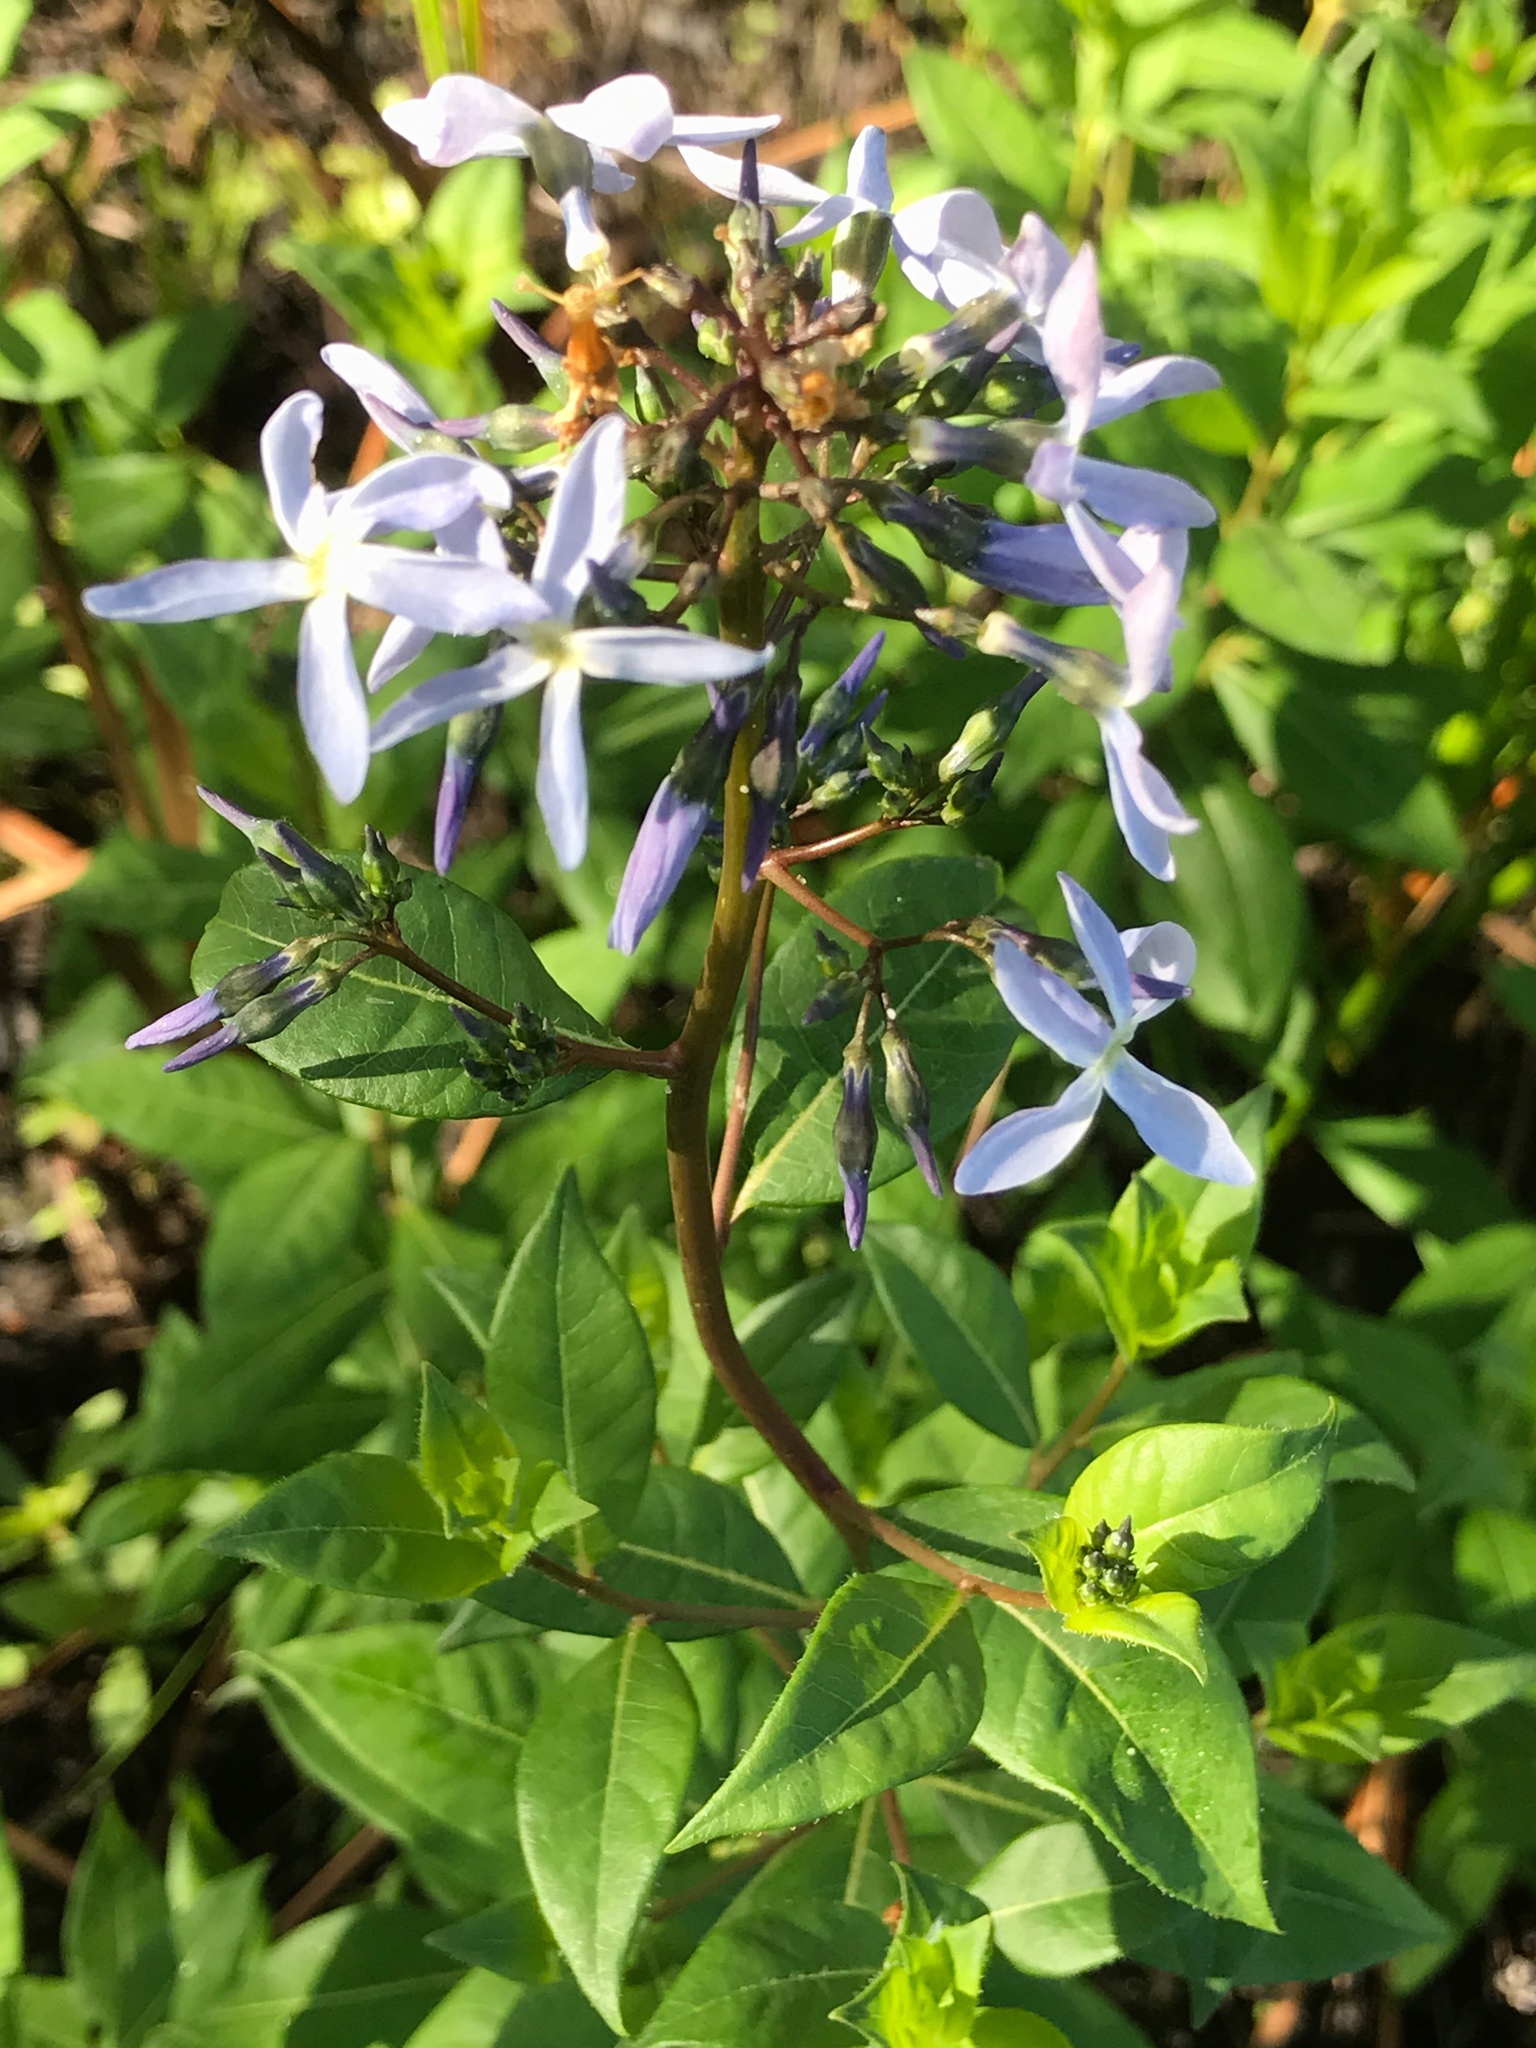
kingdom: Plantae
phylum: Tracheophyta
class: Magnoliopsida
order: Gentianales
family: Apocynaceae
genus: Amsonia
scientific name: Amsonia tabernaemontana
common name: Texas-star
